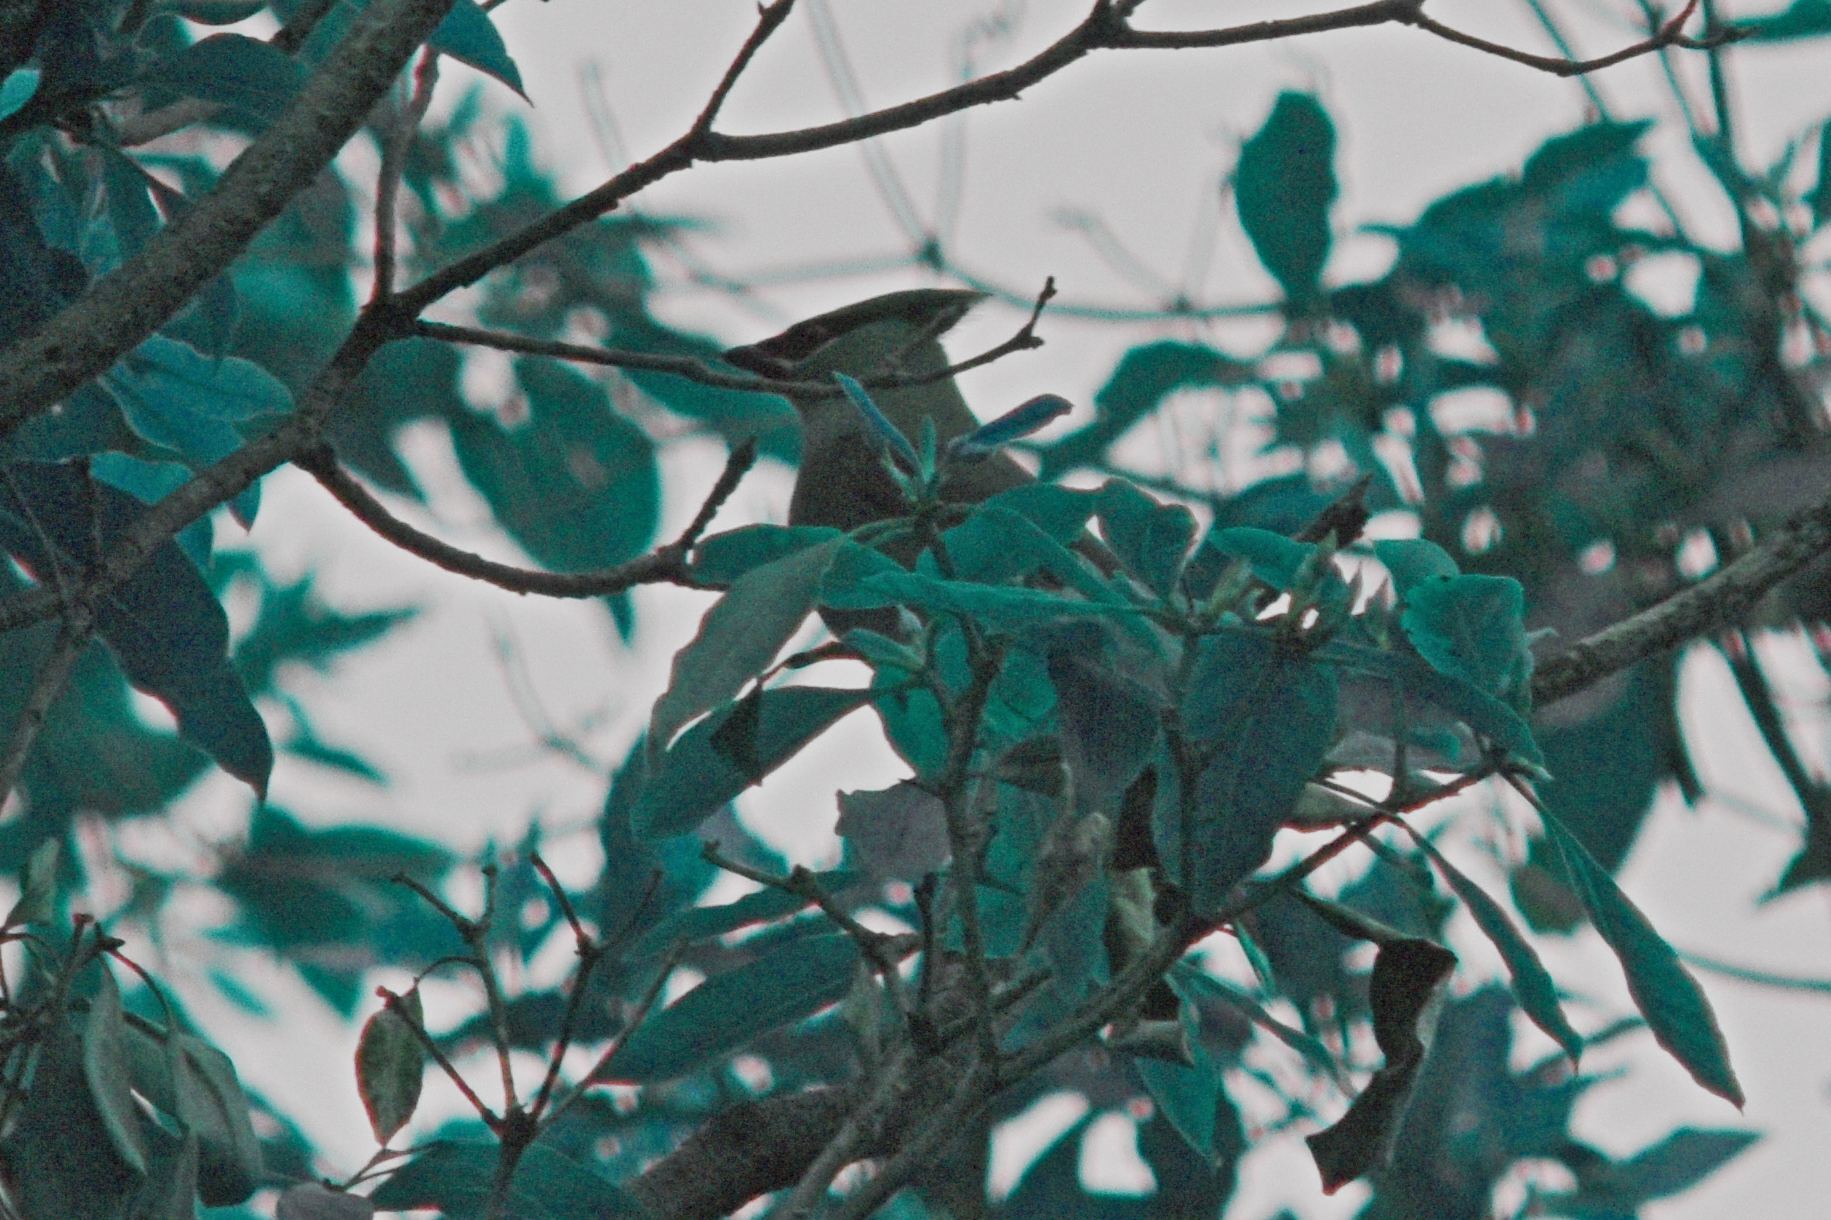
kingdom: Animalia
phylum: Chordata
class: Aves
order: Passeriformes
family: Bombycillidae
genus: Bombycilla
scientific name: Bombycilla cedrorum
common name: Cedar waxwing
